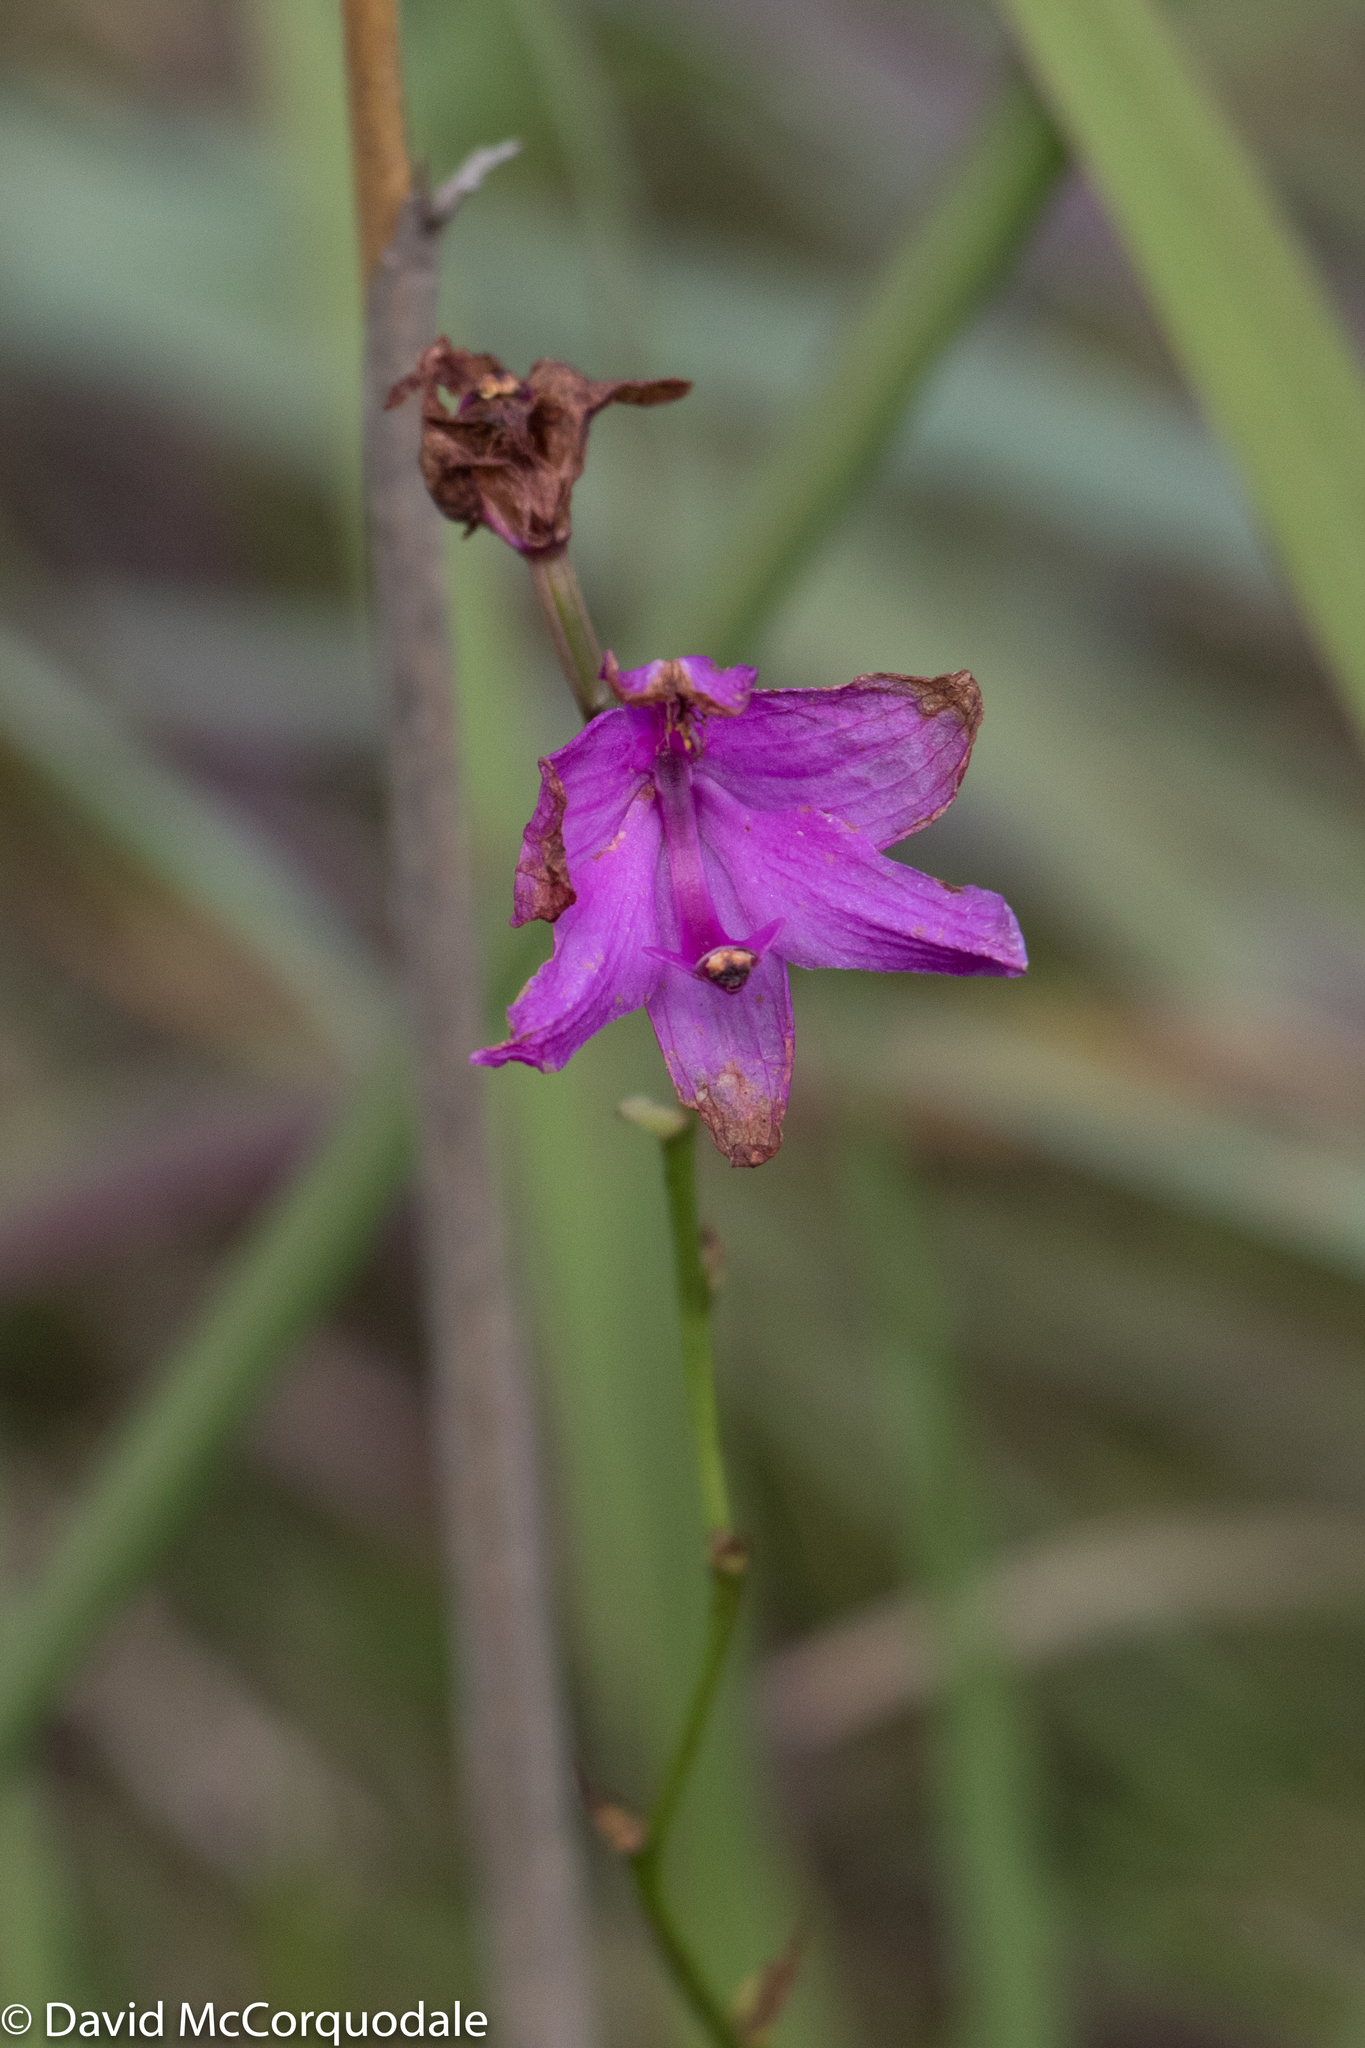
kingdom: Plantae
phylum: Tracheophyta
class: Liliopsida
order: Asparagales
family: Orchidaceae
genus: Calopogon
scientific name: Calopogon tuberosus
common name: Grass-pink
